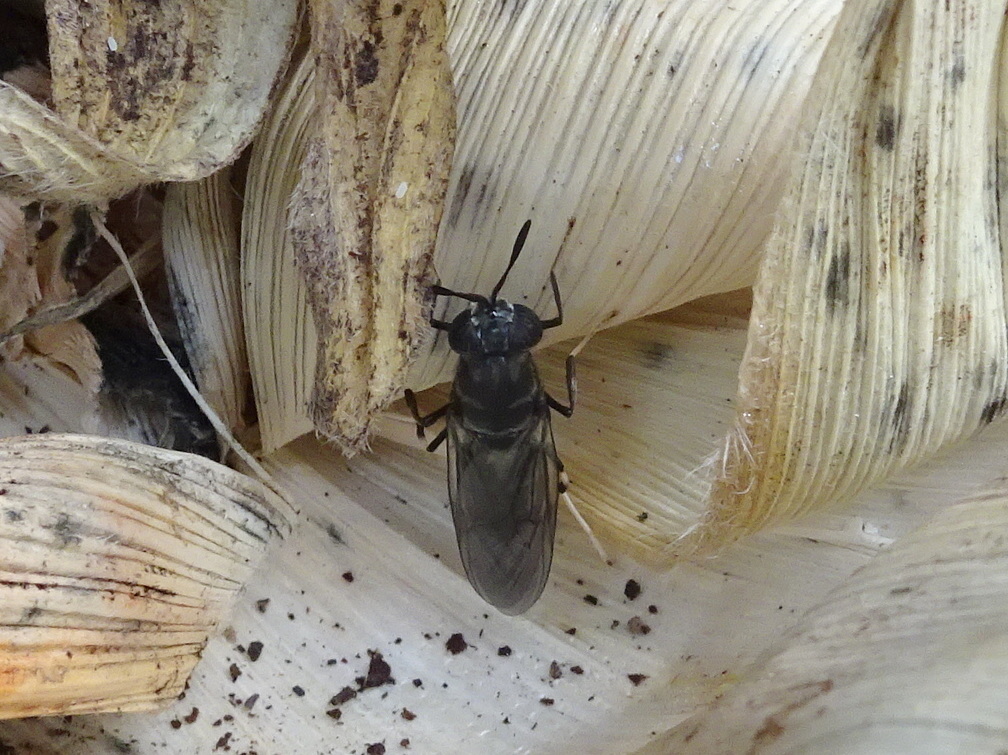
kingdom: Animalia
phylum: Arthropoda
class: Insecta
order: Diptera
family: Stratiomyidae
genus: Hermetia
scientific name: Hermetia illucens
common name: Black soldier fly
